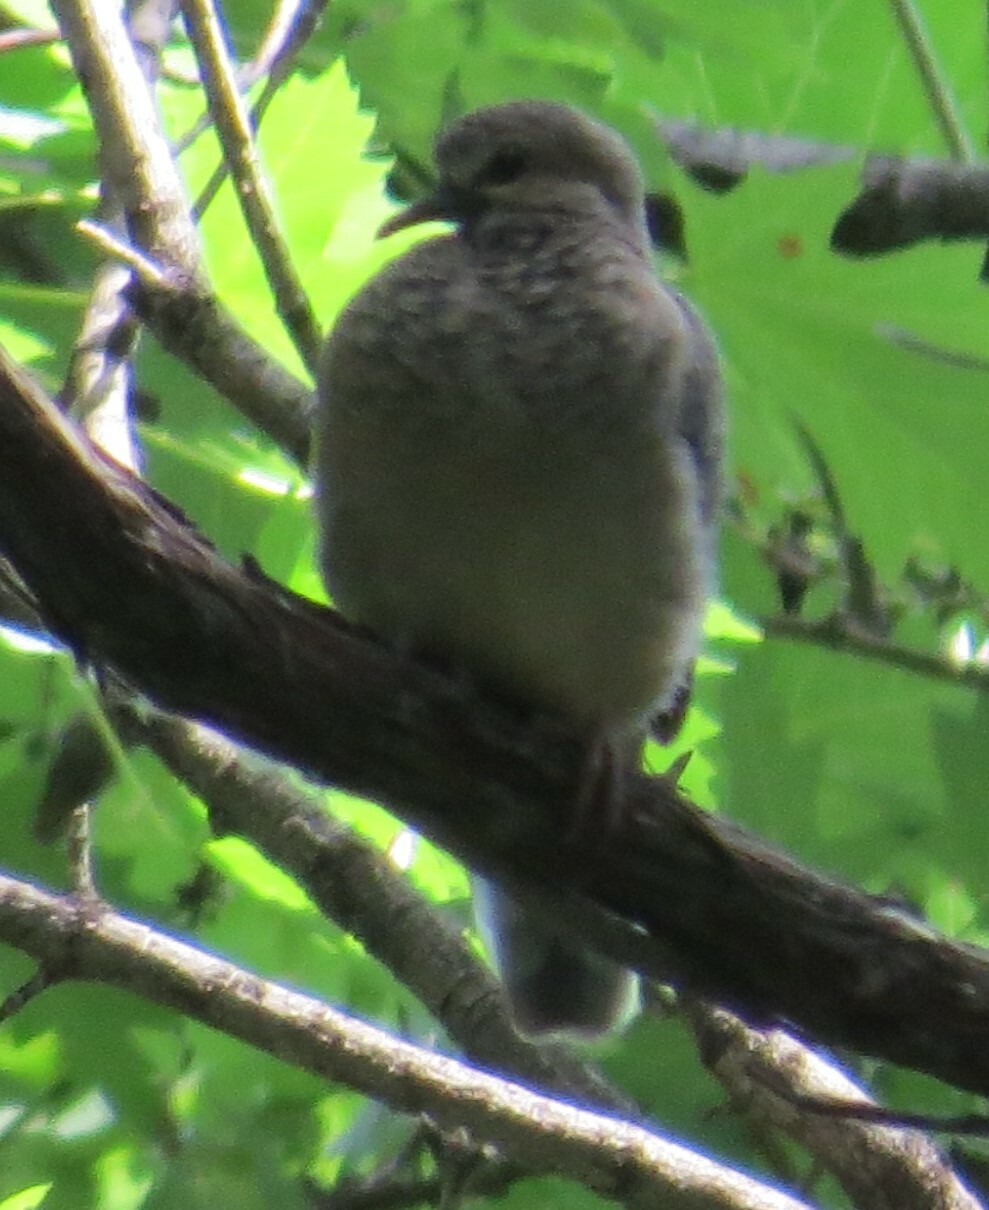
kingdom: Animalia
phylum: Chordata
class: Aves
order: Columbiformes
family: Columbidae
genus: Zenaida
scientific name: Zenaida macroura
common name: Mourning dove
